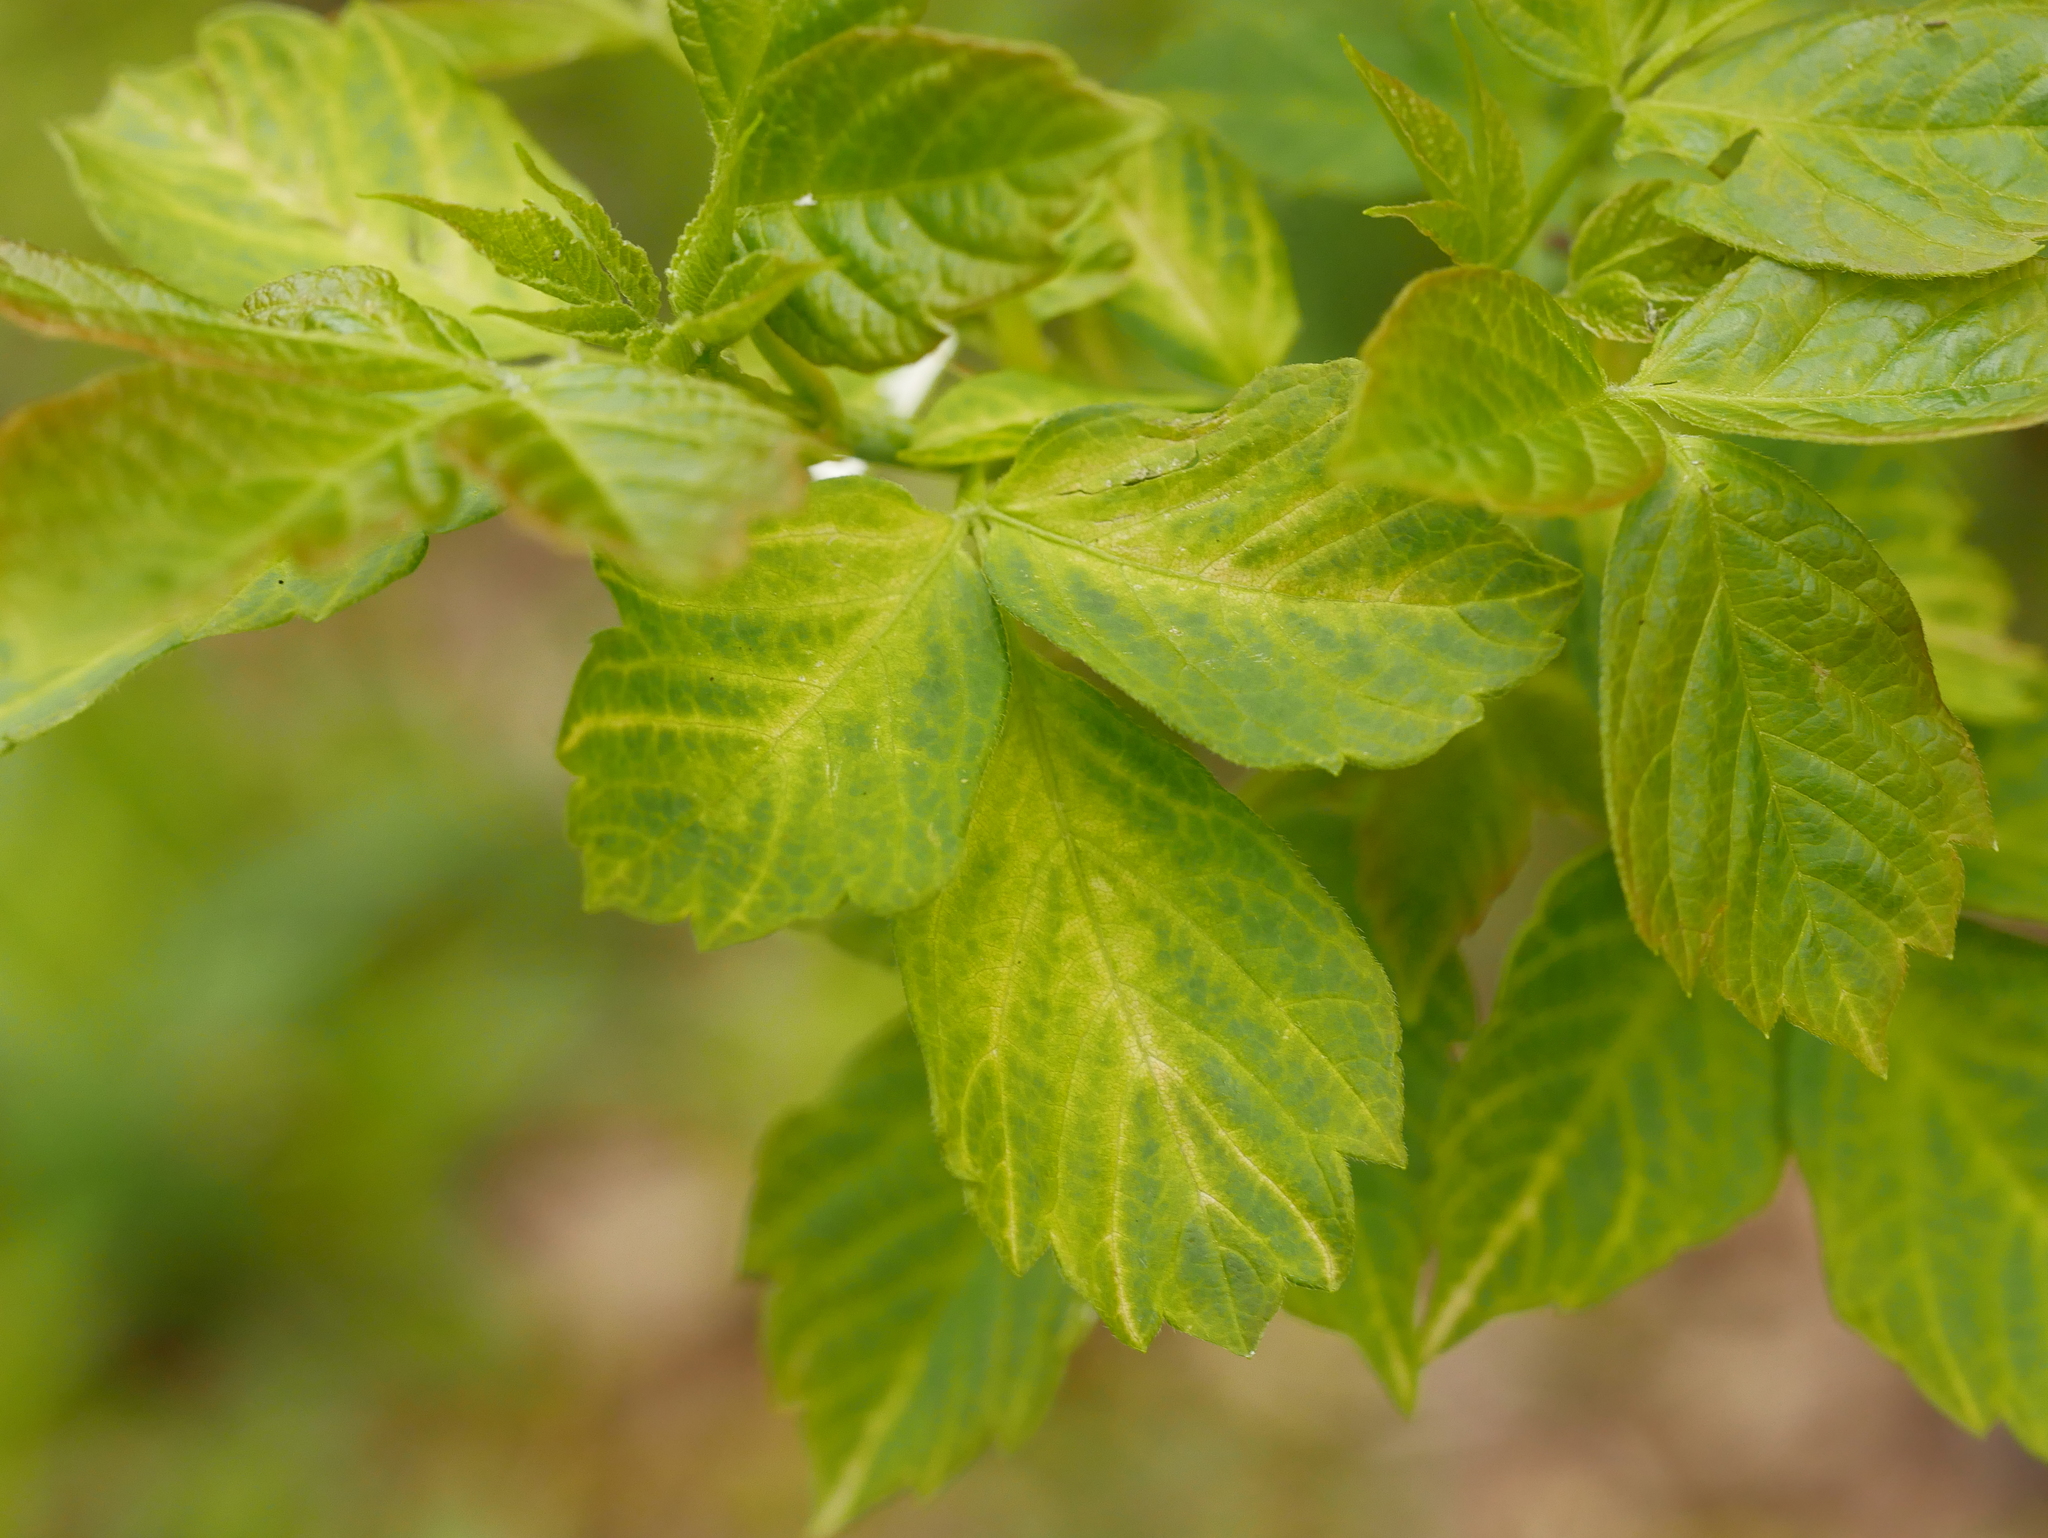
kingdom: Plantae
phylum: Tracheophyta
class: Magnoliopsida
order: Sapindales
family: Sapindaceae
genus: Acer
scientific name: Acer negundo
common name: Ashleaf maple
